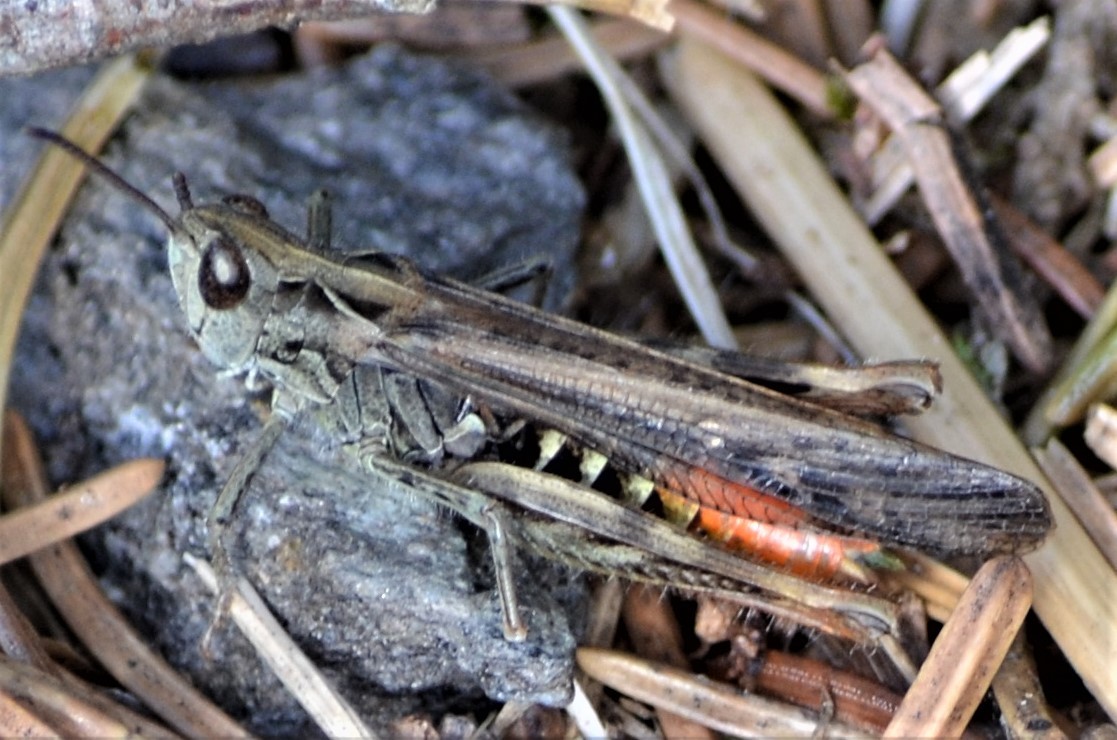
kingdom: Animalia
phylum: Arthropoda
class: Insecta
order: Orthoptera
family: Acrididae
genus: Chorthippus
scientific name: Chorthippus brunneus
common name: Field grasshopper
